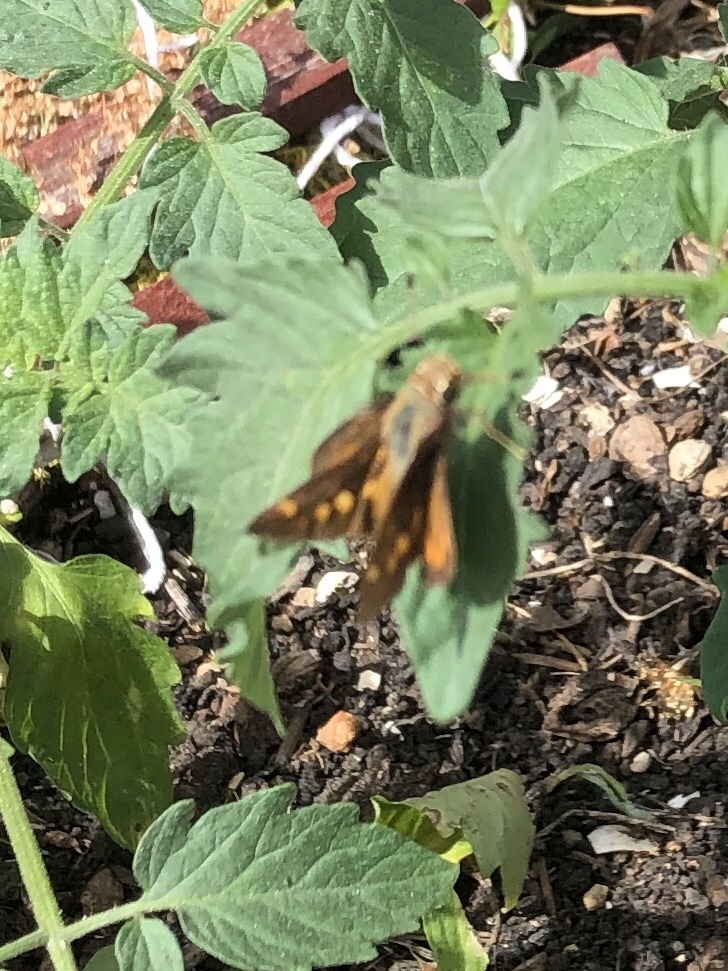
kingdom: Animalia
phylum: Arthropoda
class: Insecta
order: Lepidoptera
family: Hesperiidae
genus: Lon
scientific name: Lon melane
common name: Umber skipper
